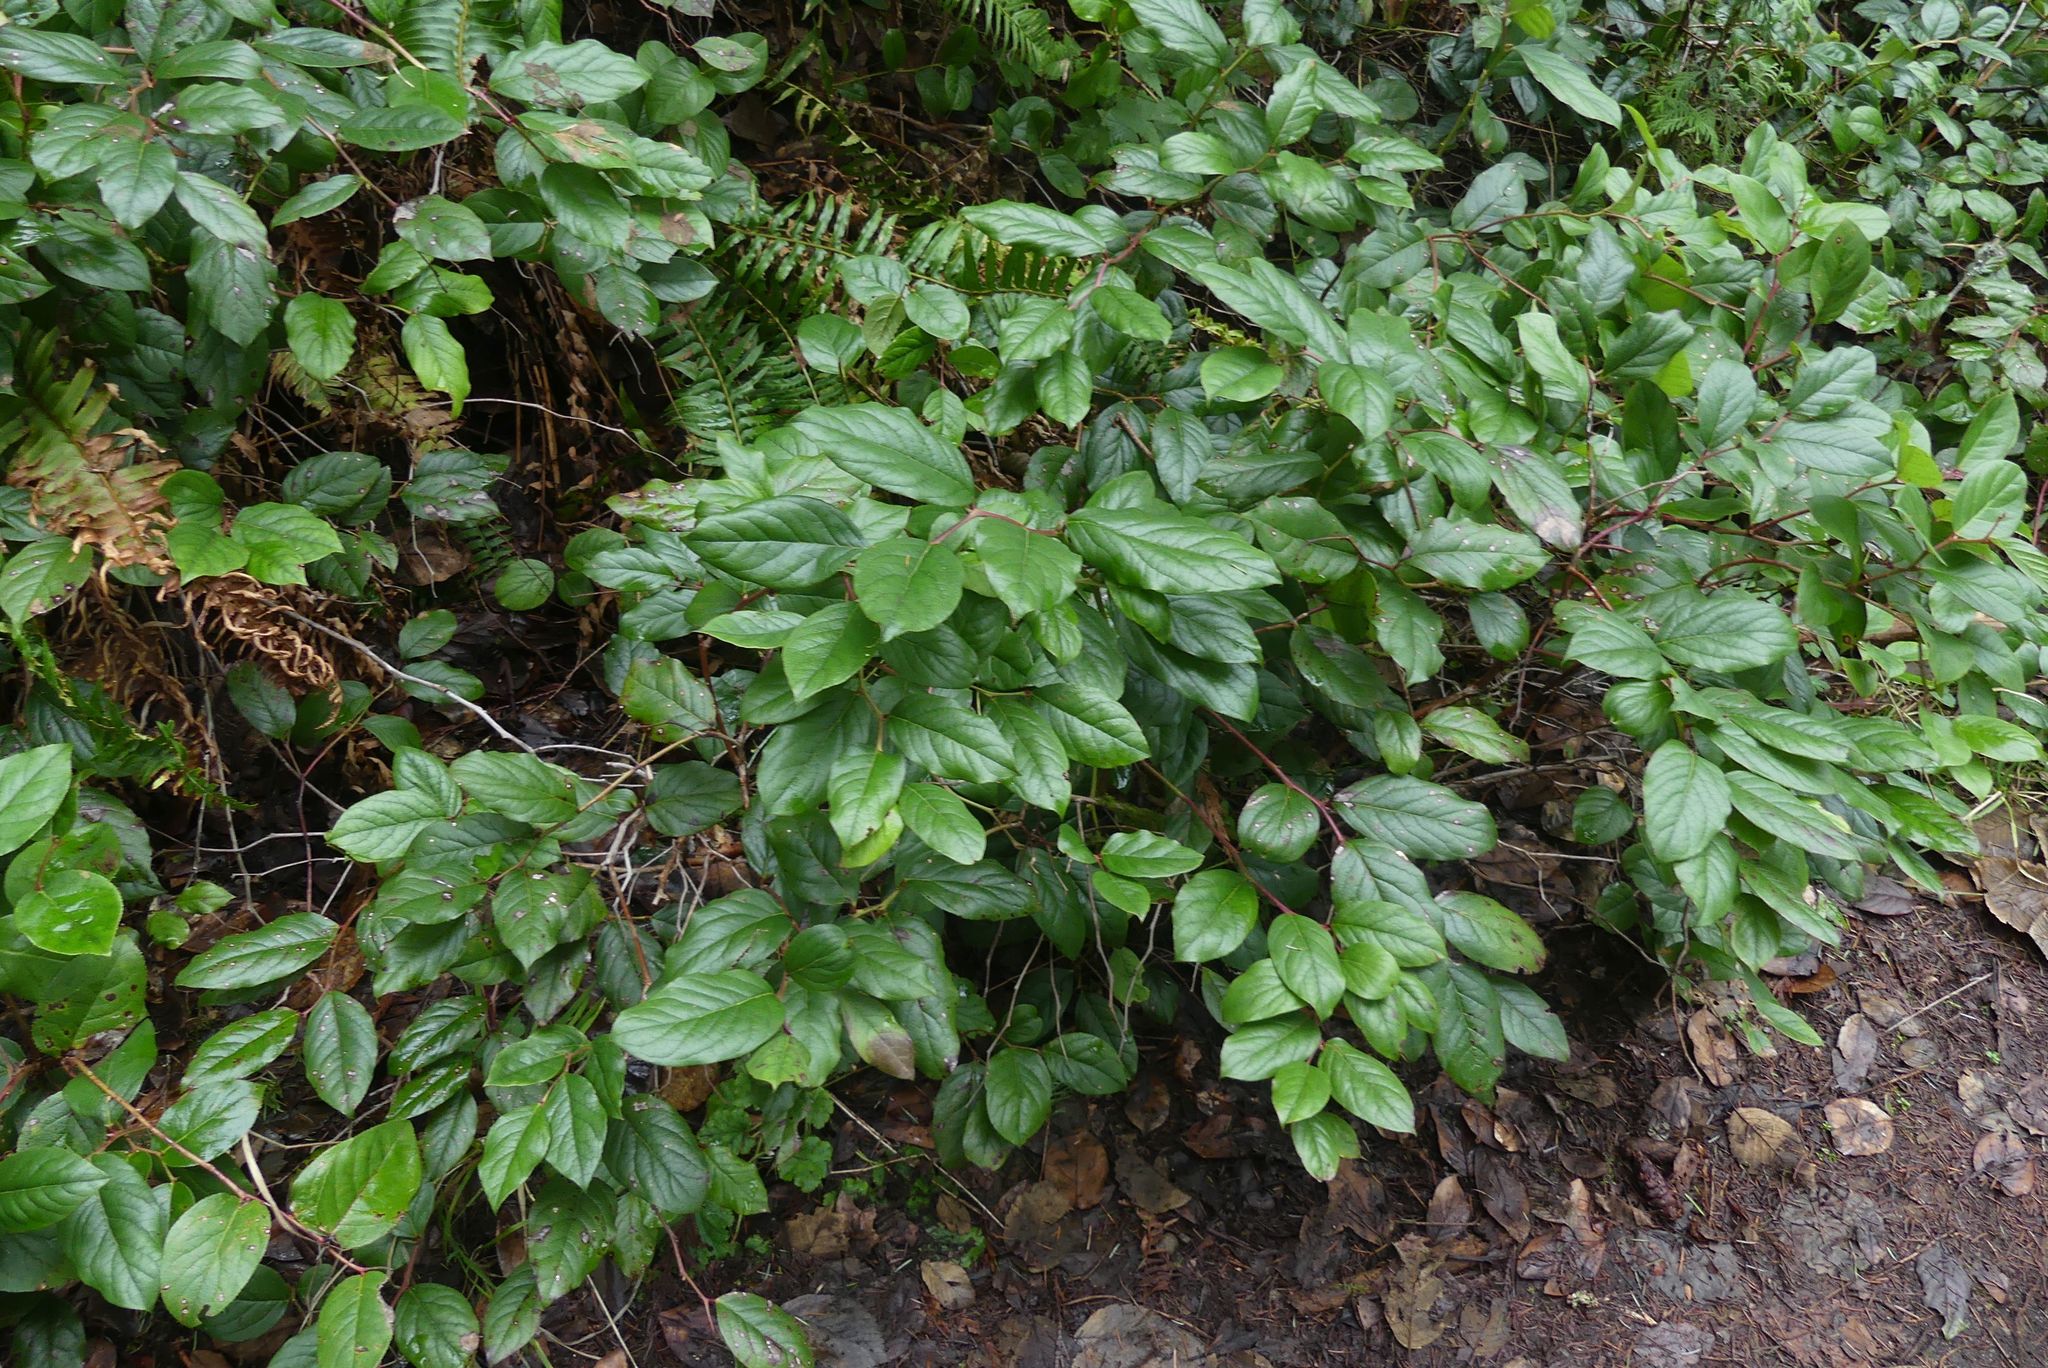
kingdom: Plantae
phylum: Tracheophyta
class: Magnoliopsida
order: Ericales
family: Ericaceae
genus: Gaultheria
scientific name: Gaultheria shallon
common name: Shallon
